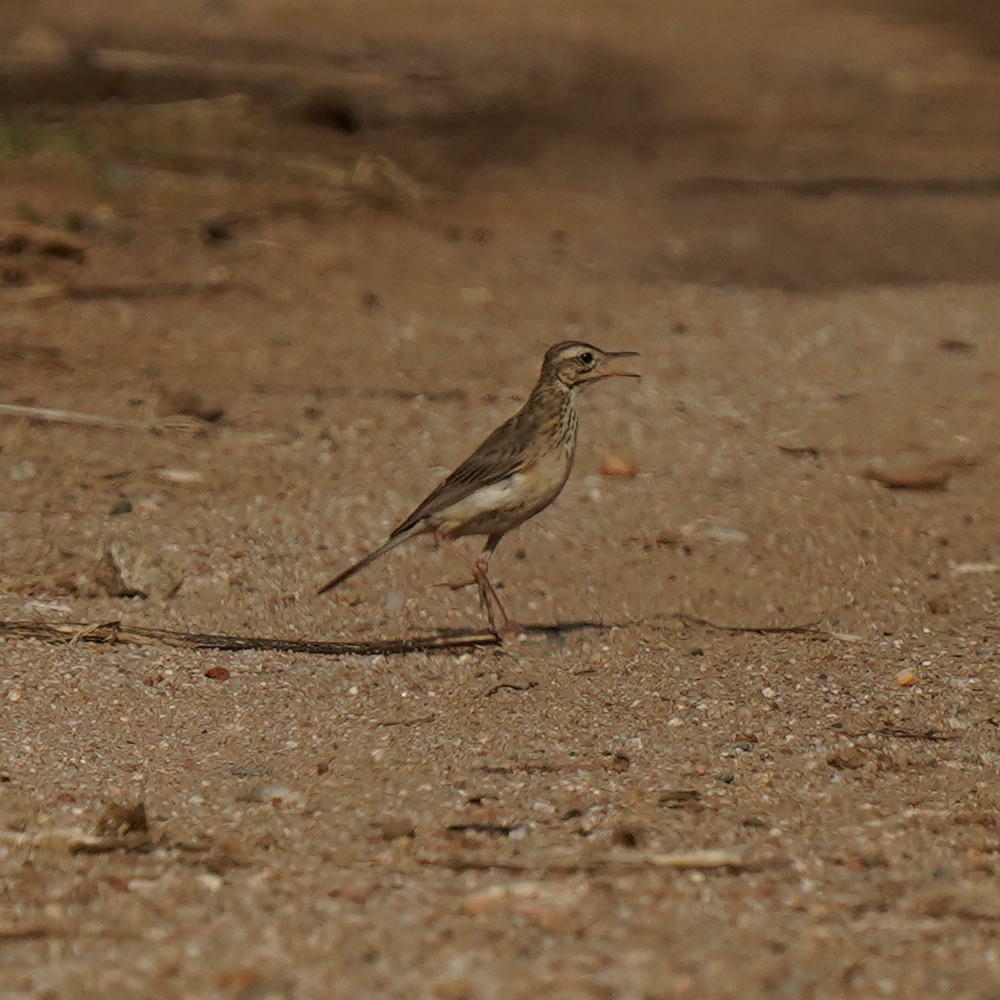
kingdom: Animalia
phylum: Chordata
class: Aves
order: Passeriformes
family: Motacillidae
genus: Anthus
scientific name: Anthus rufulus
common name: Paddyfield pipit
